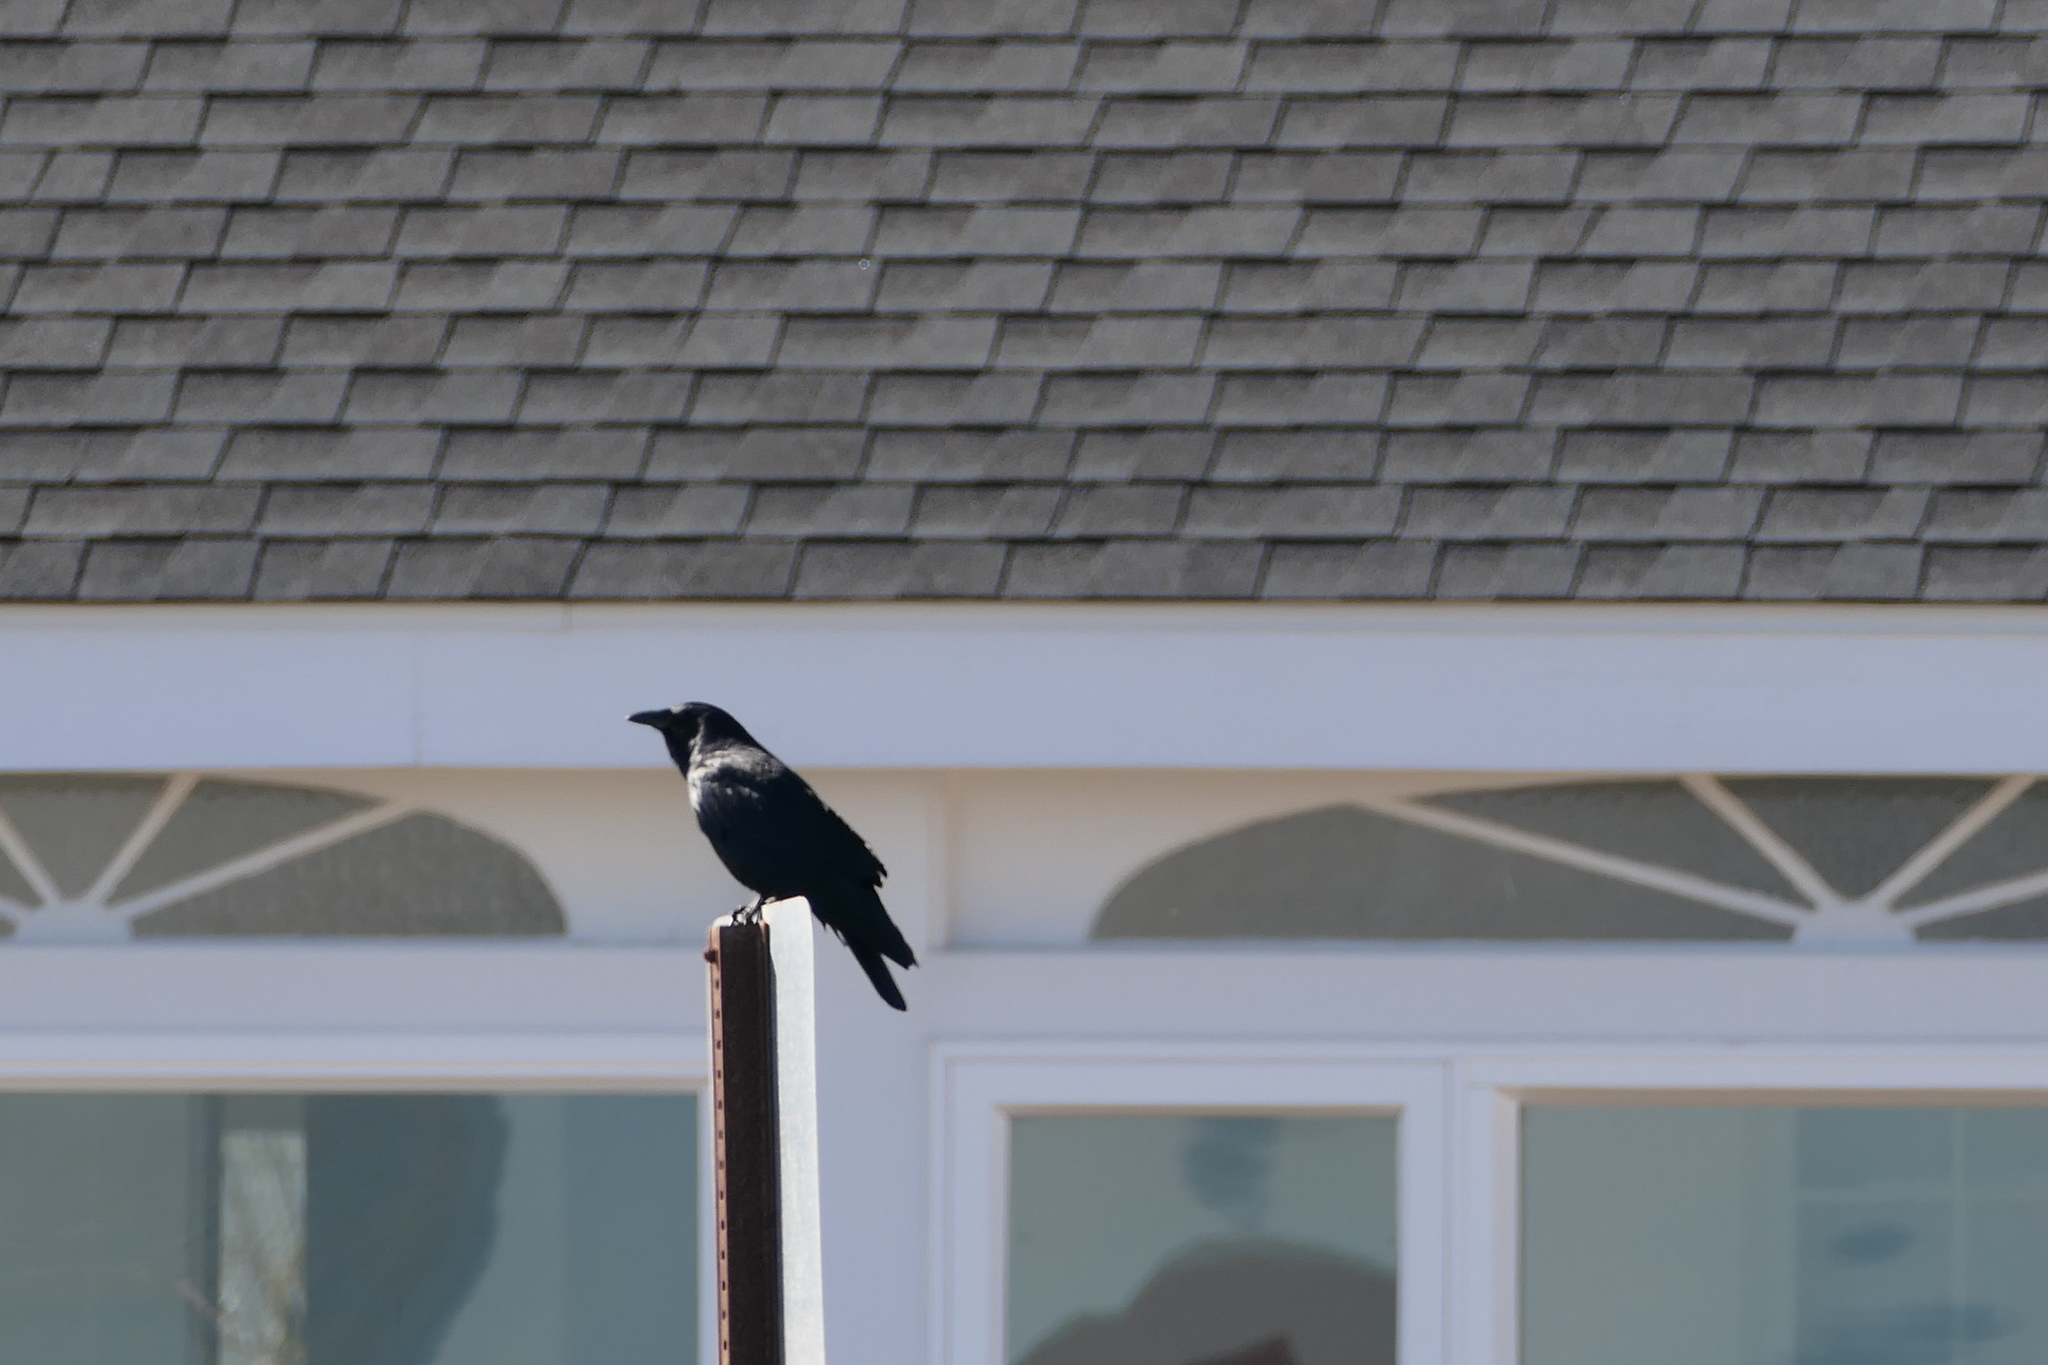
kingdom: Animalia
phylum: Chordata
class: Aves
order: Passeriformes
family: Corvidae
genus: Corvus
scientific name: Corvus ossifragus
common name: Fish crow
